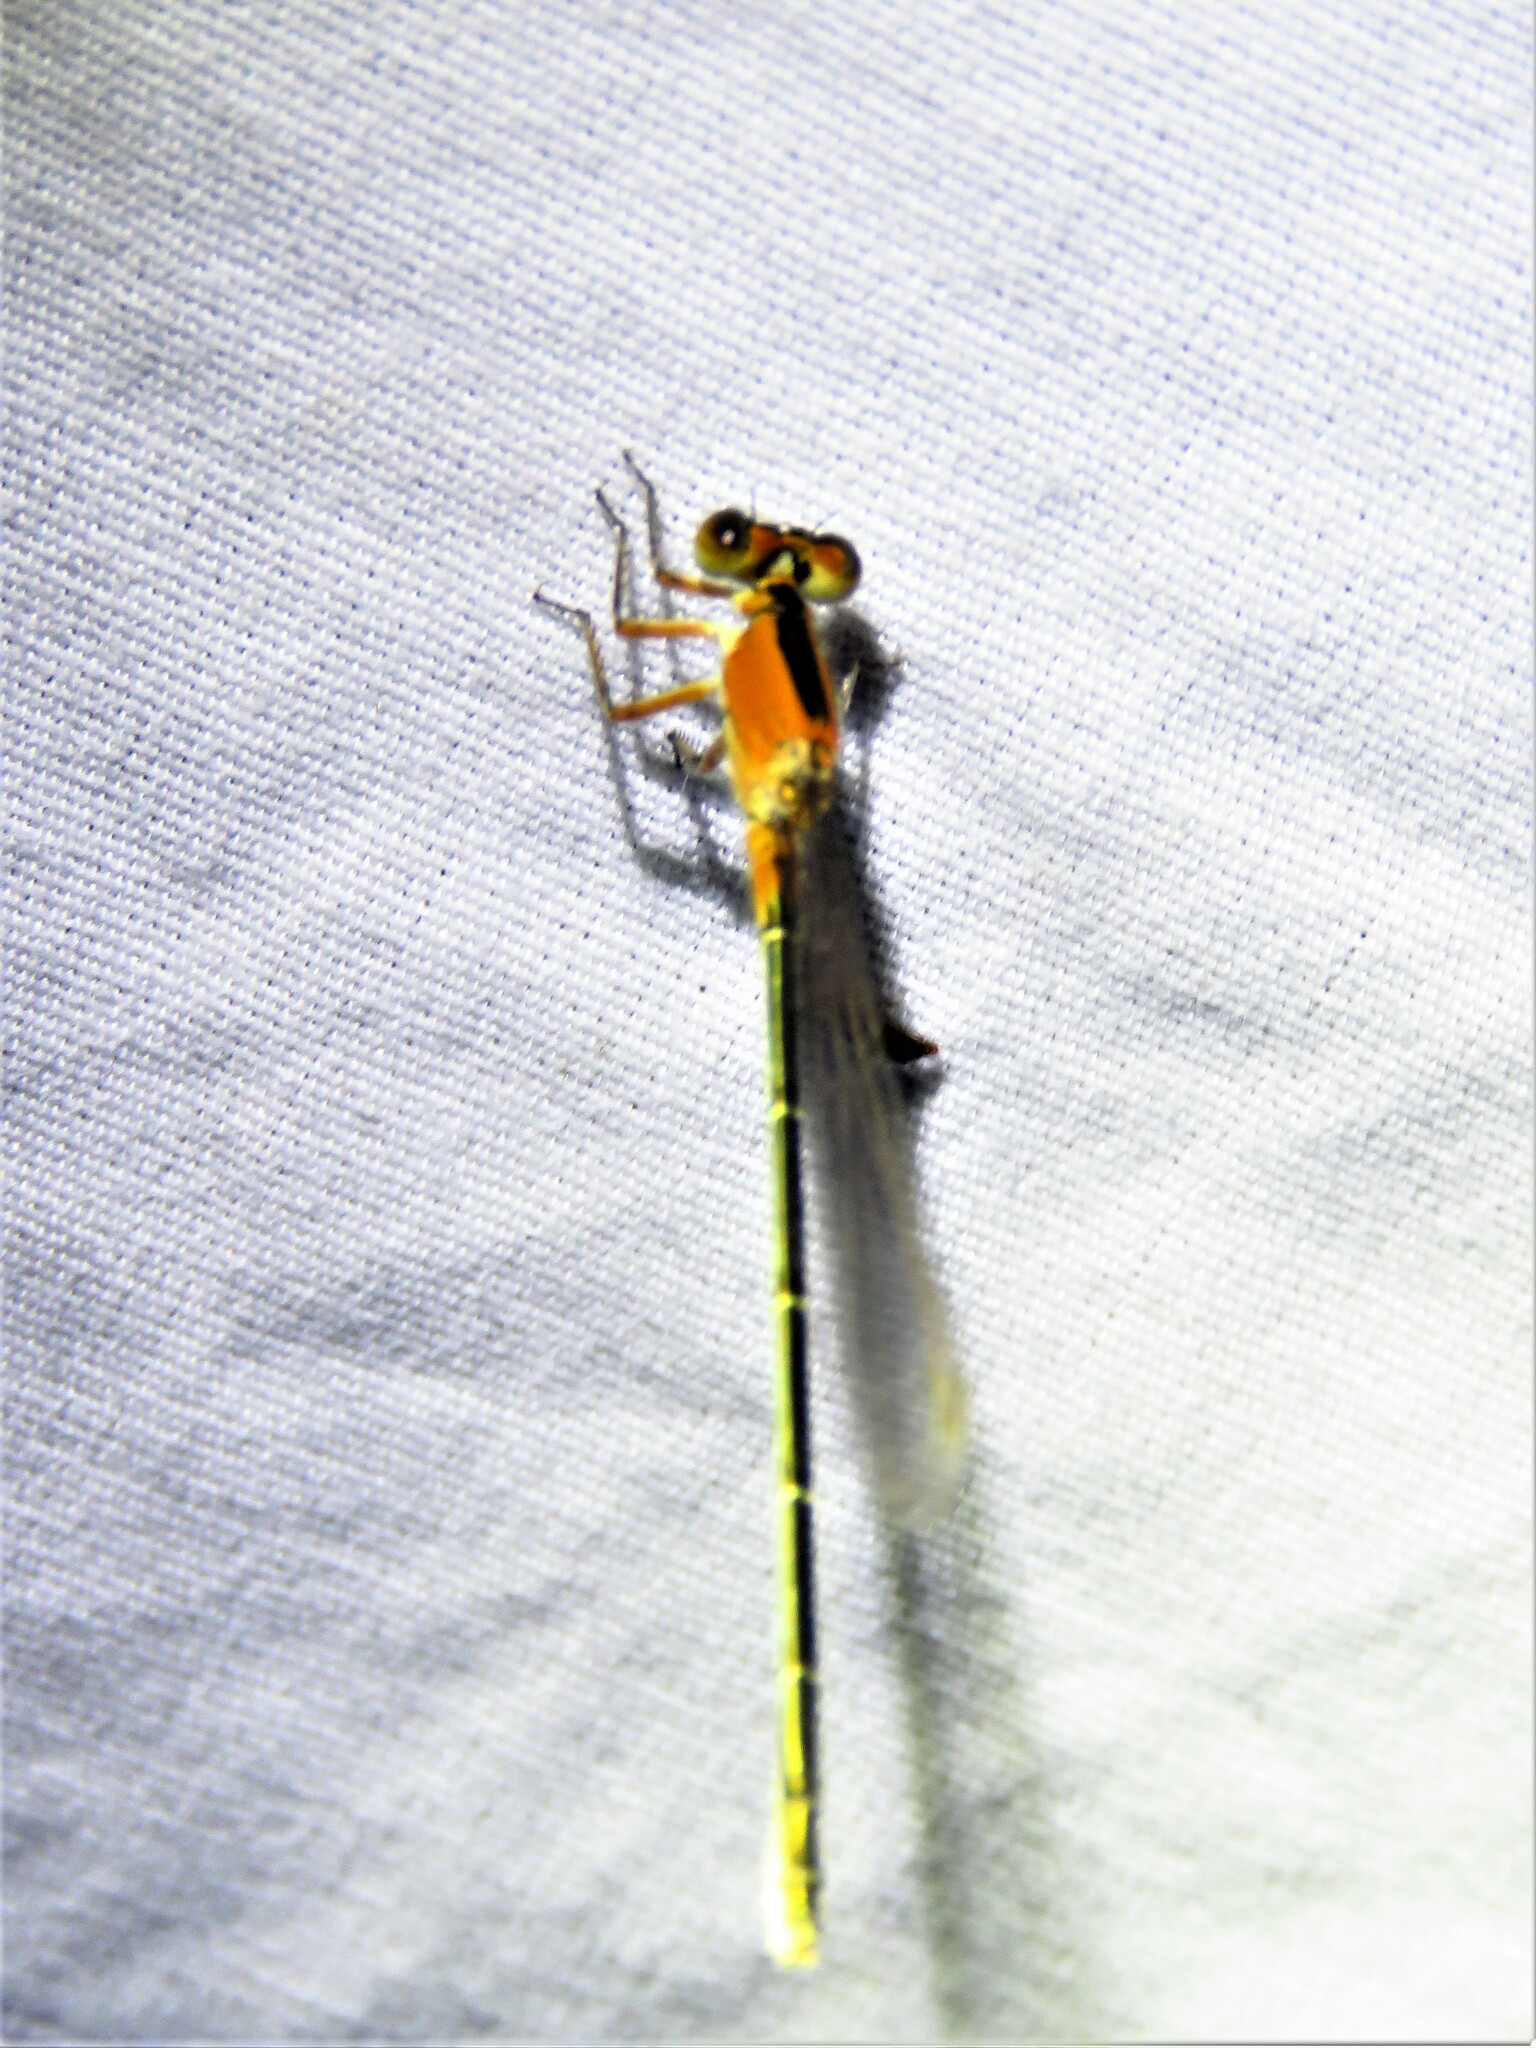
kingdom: Animalia
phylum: Arthropoda
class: Insecta
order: Odonata
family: Coenagrionidae
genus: Ischnura
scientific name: Ischnura ramburii
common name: Rambur's forktail
